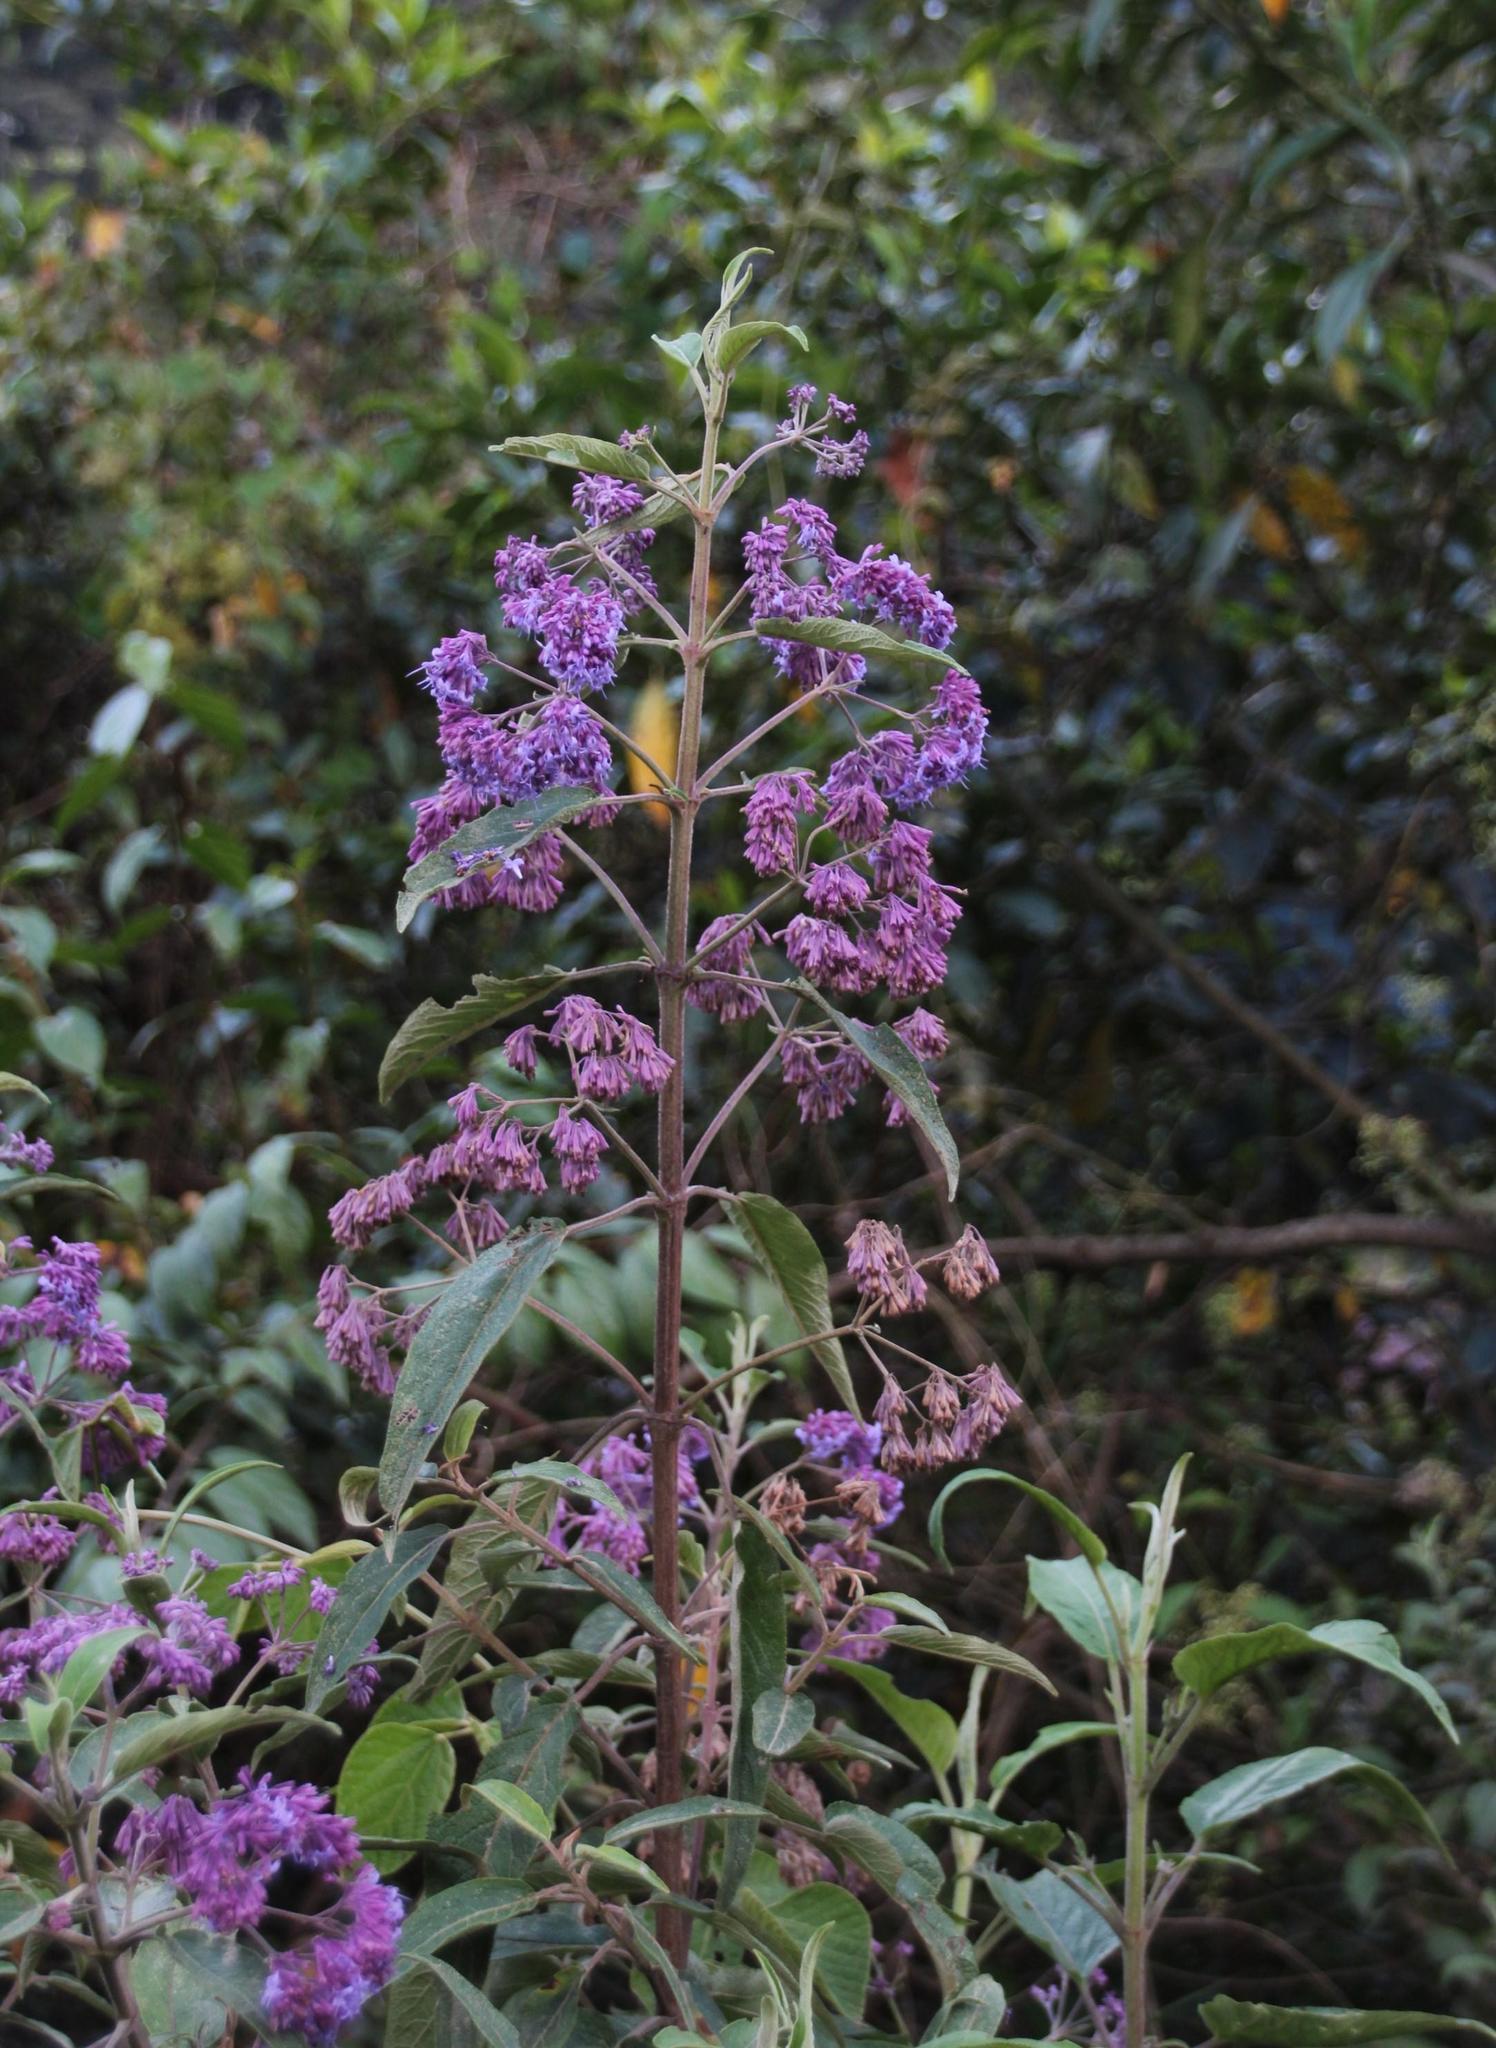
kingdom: Plantae
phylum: Tracheophyta
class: Magnoliopsida
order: Lamiales
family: Lamiaceae
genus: Condea
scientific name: Condea tafallae
